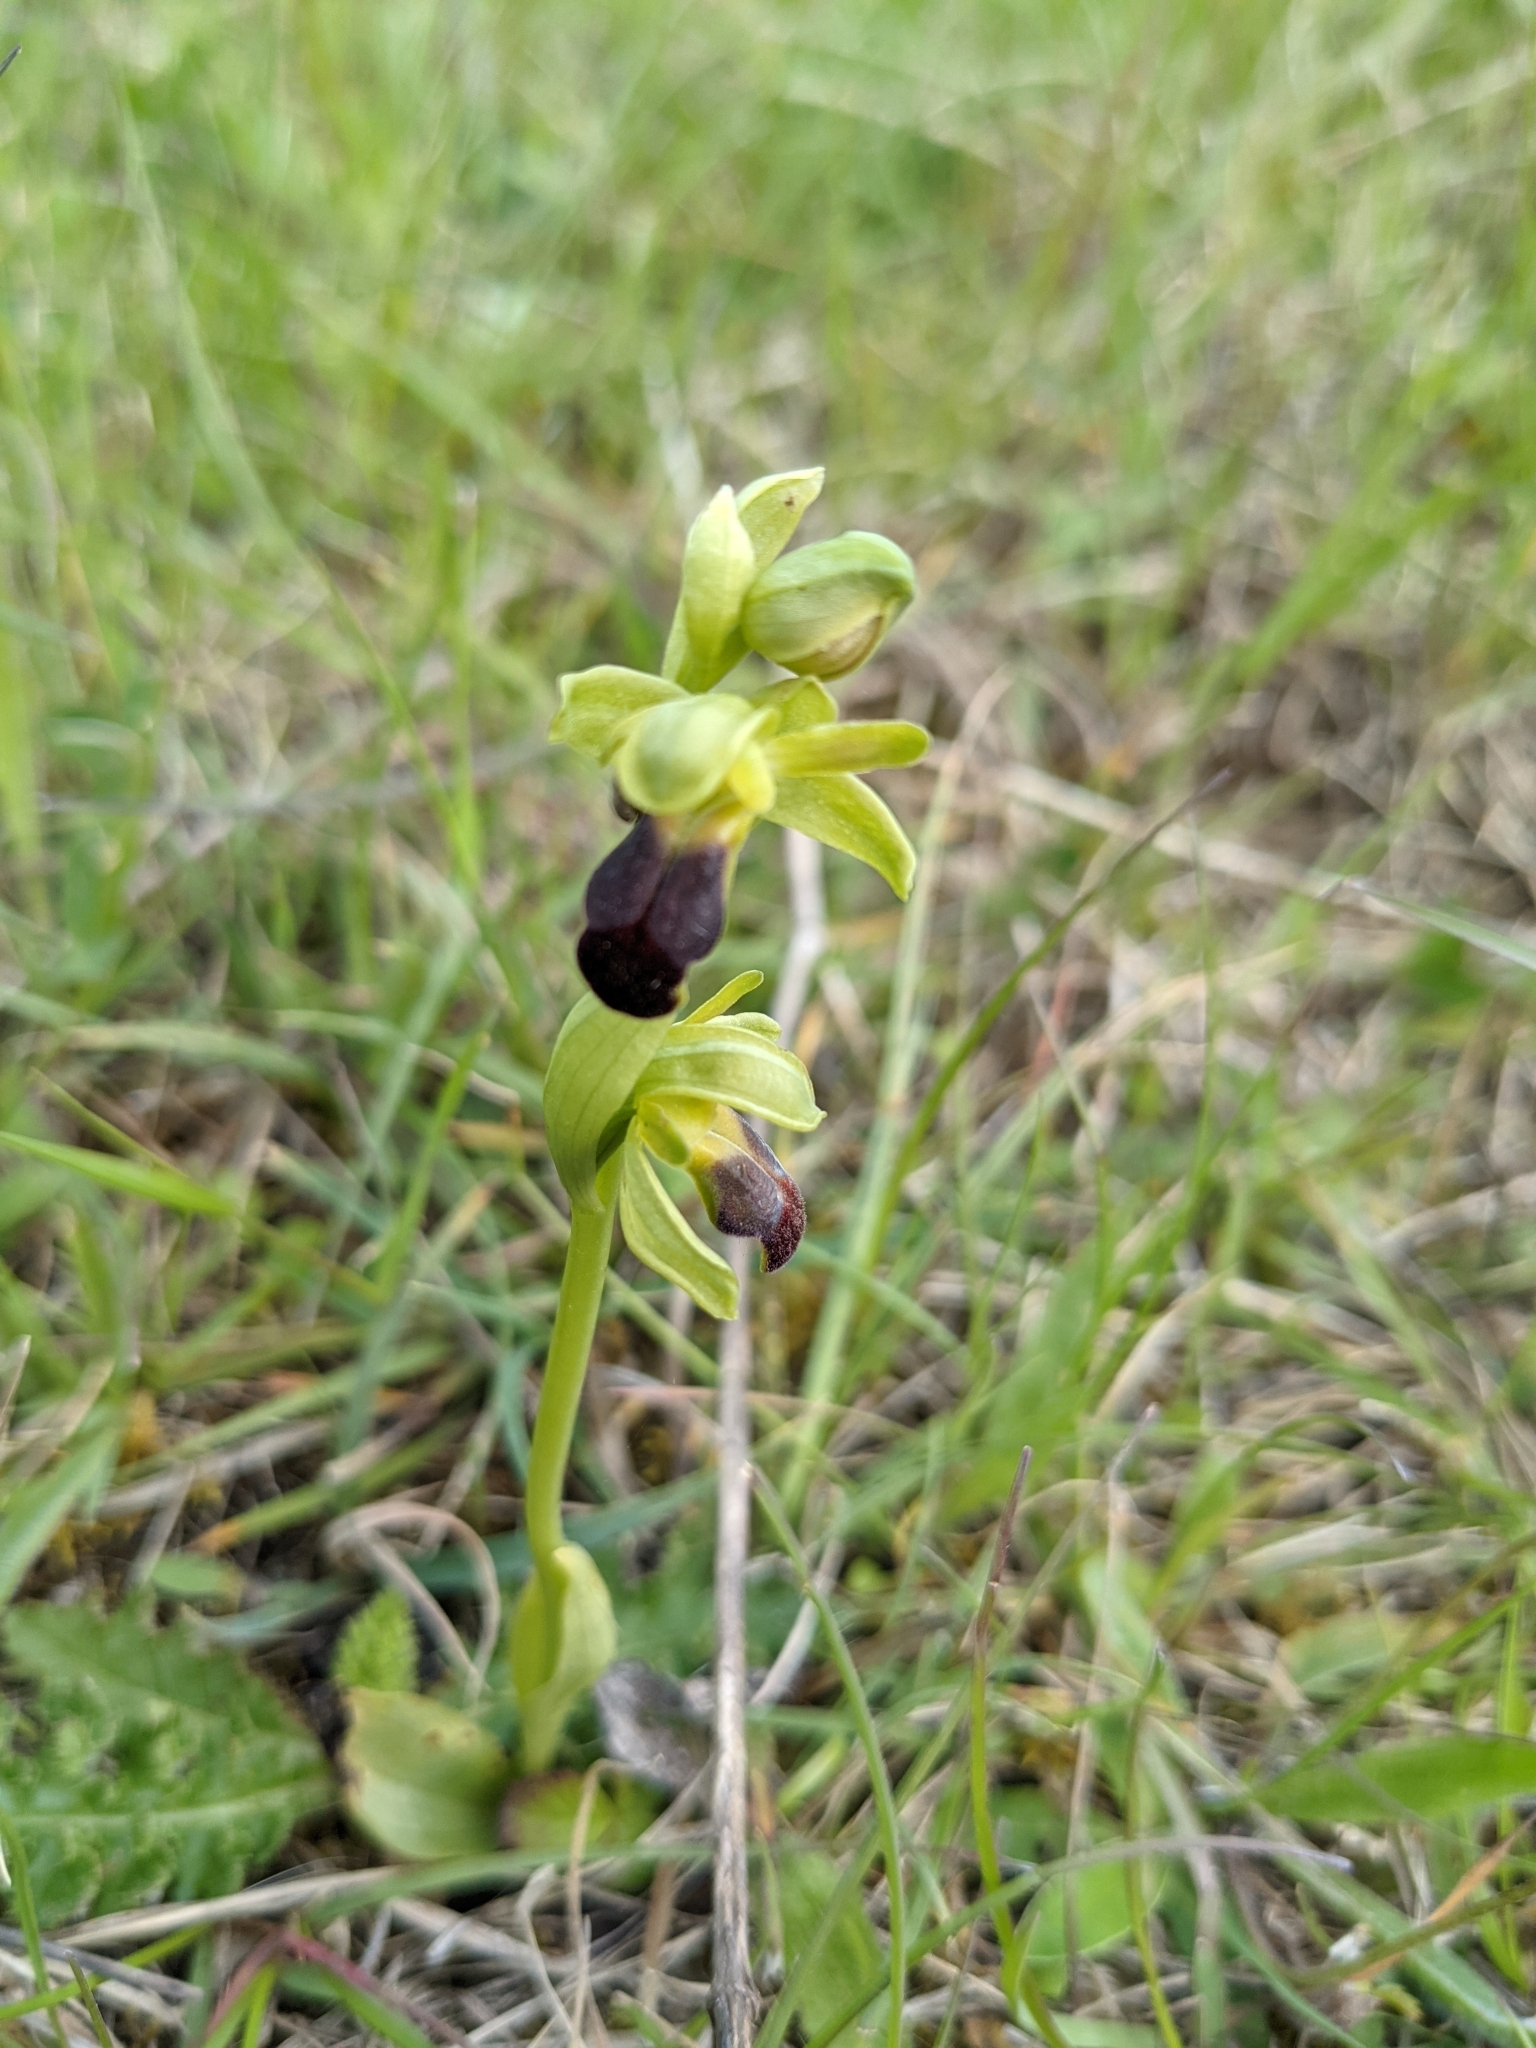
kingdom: Plantae
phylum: Tracheophyta
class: Liliopsida
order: Asparagales
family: Orchidaceae
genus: Ophrys
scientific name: Ophrys fusca
